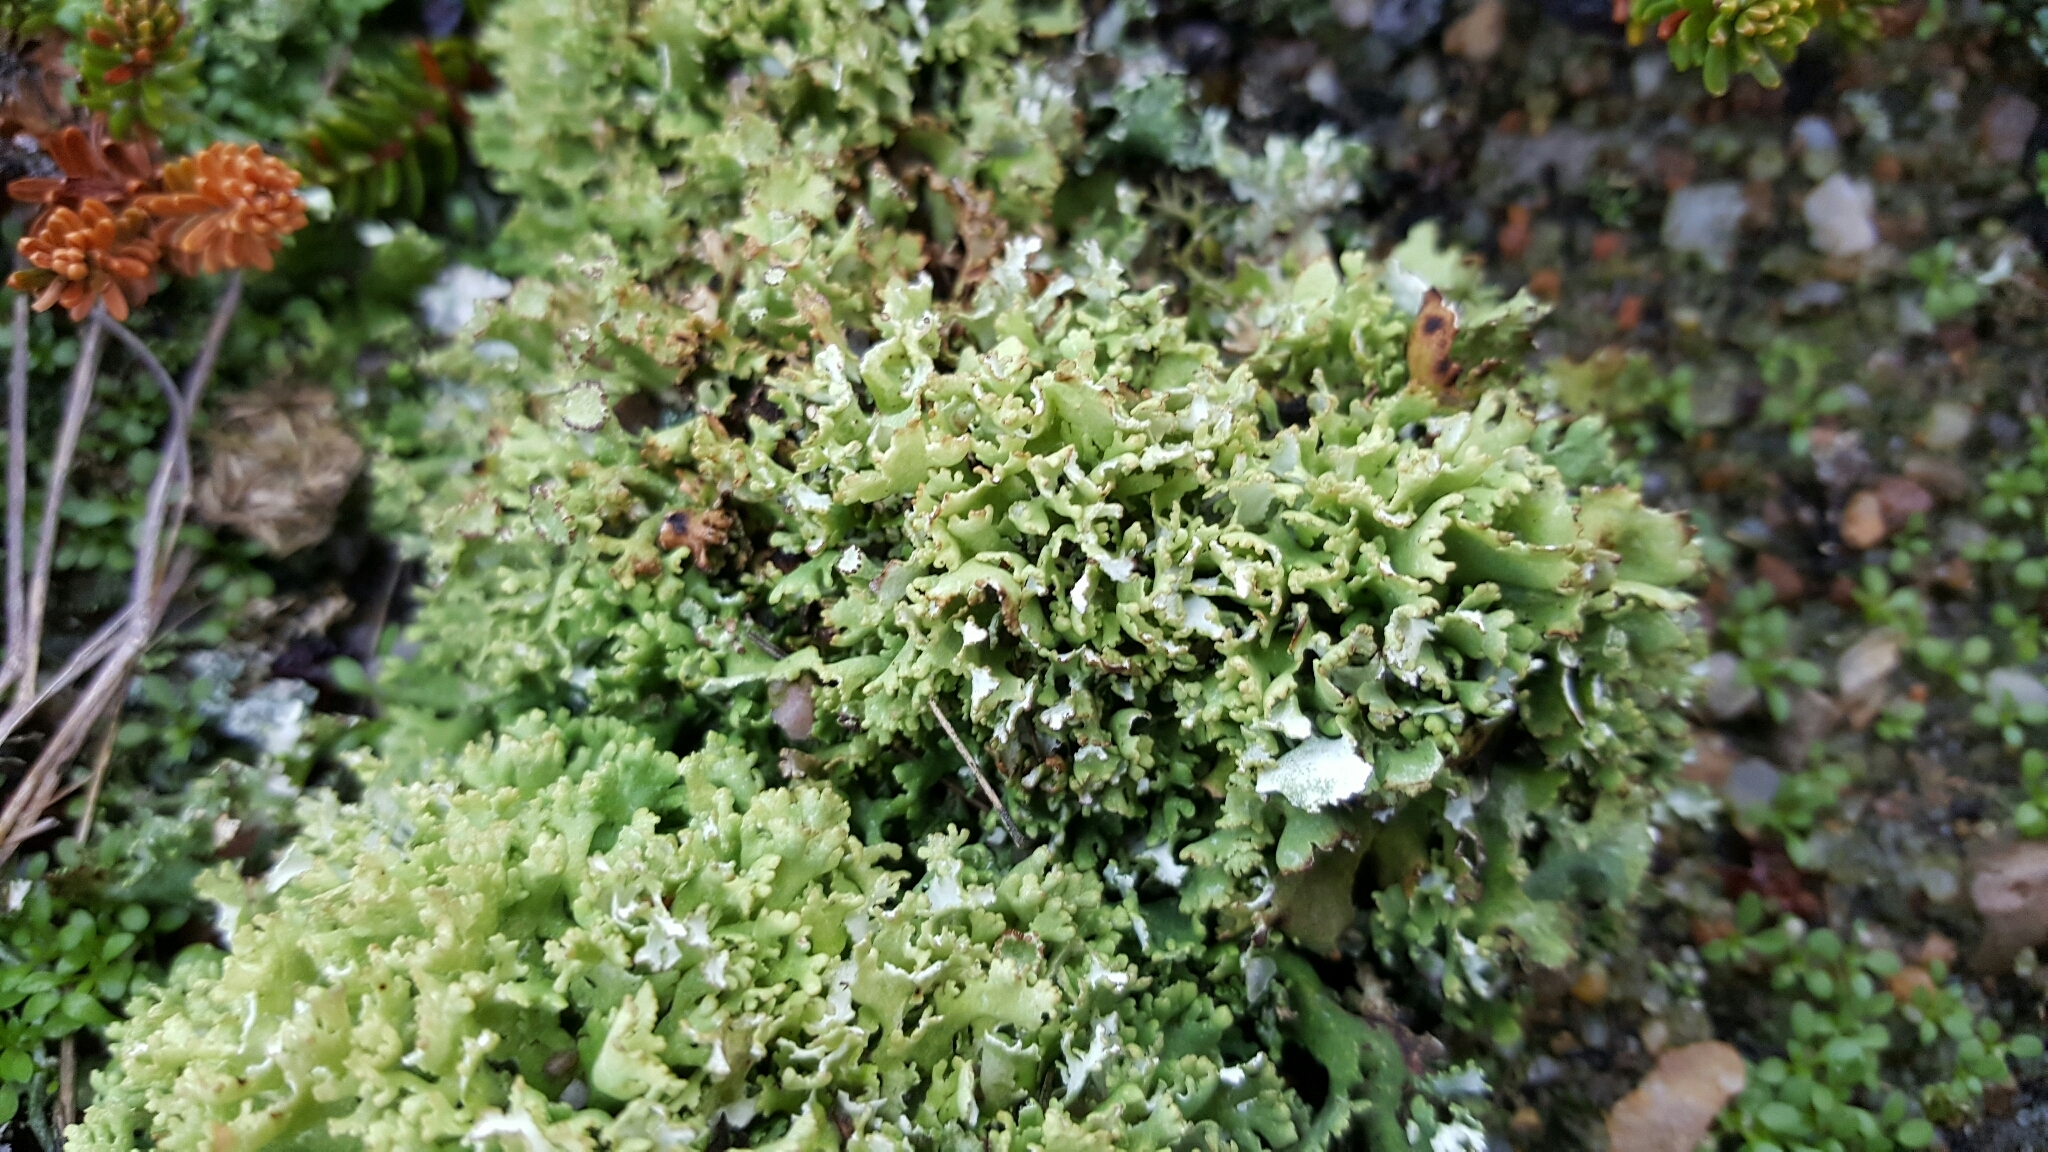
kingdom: Fungi
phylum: Ascomycota
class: Lecanoromycetes
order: Lecanorales
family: Cladoniaceae
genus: Cladonia
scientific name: Cladonia foliacea
